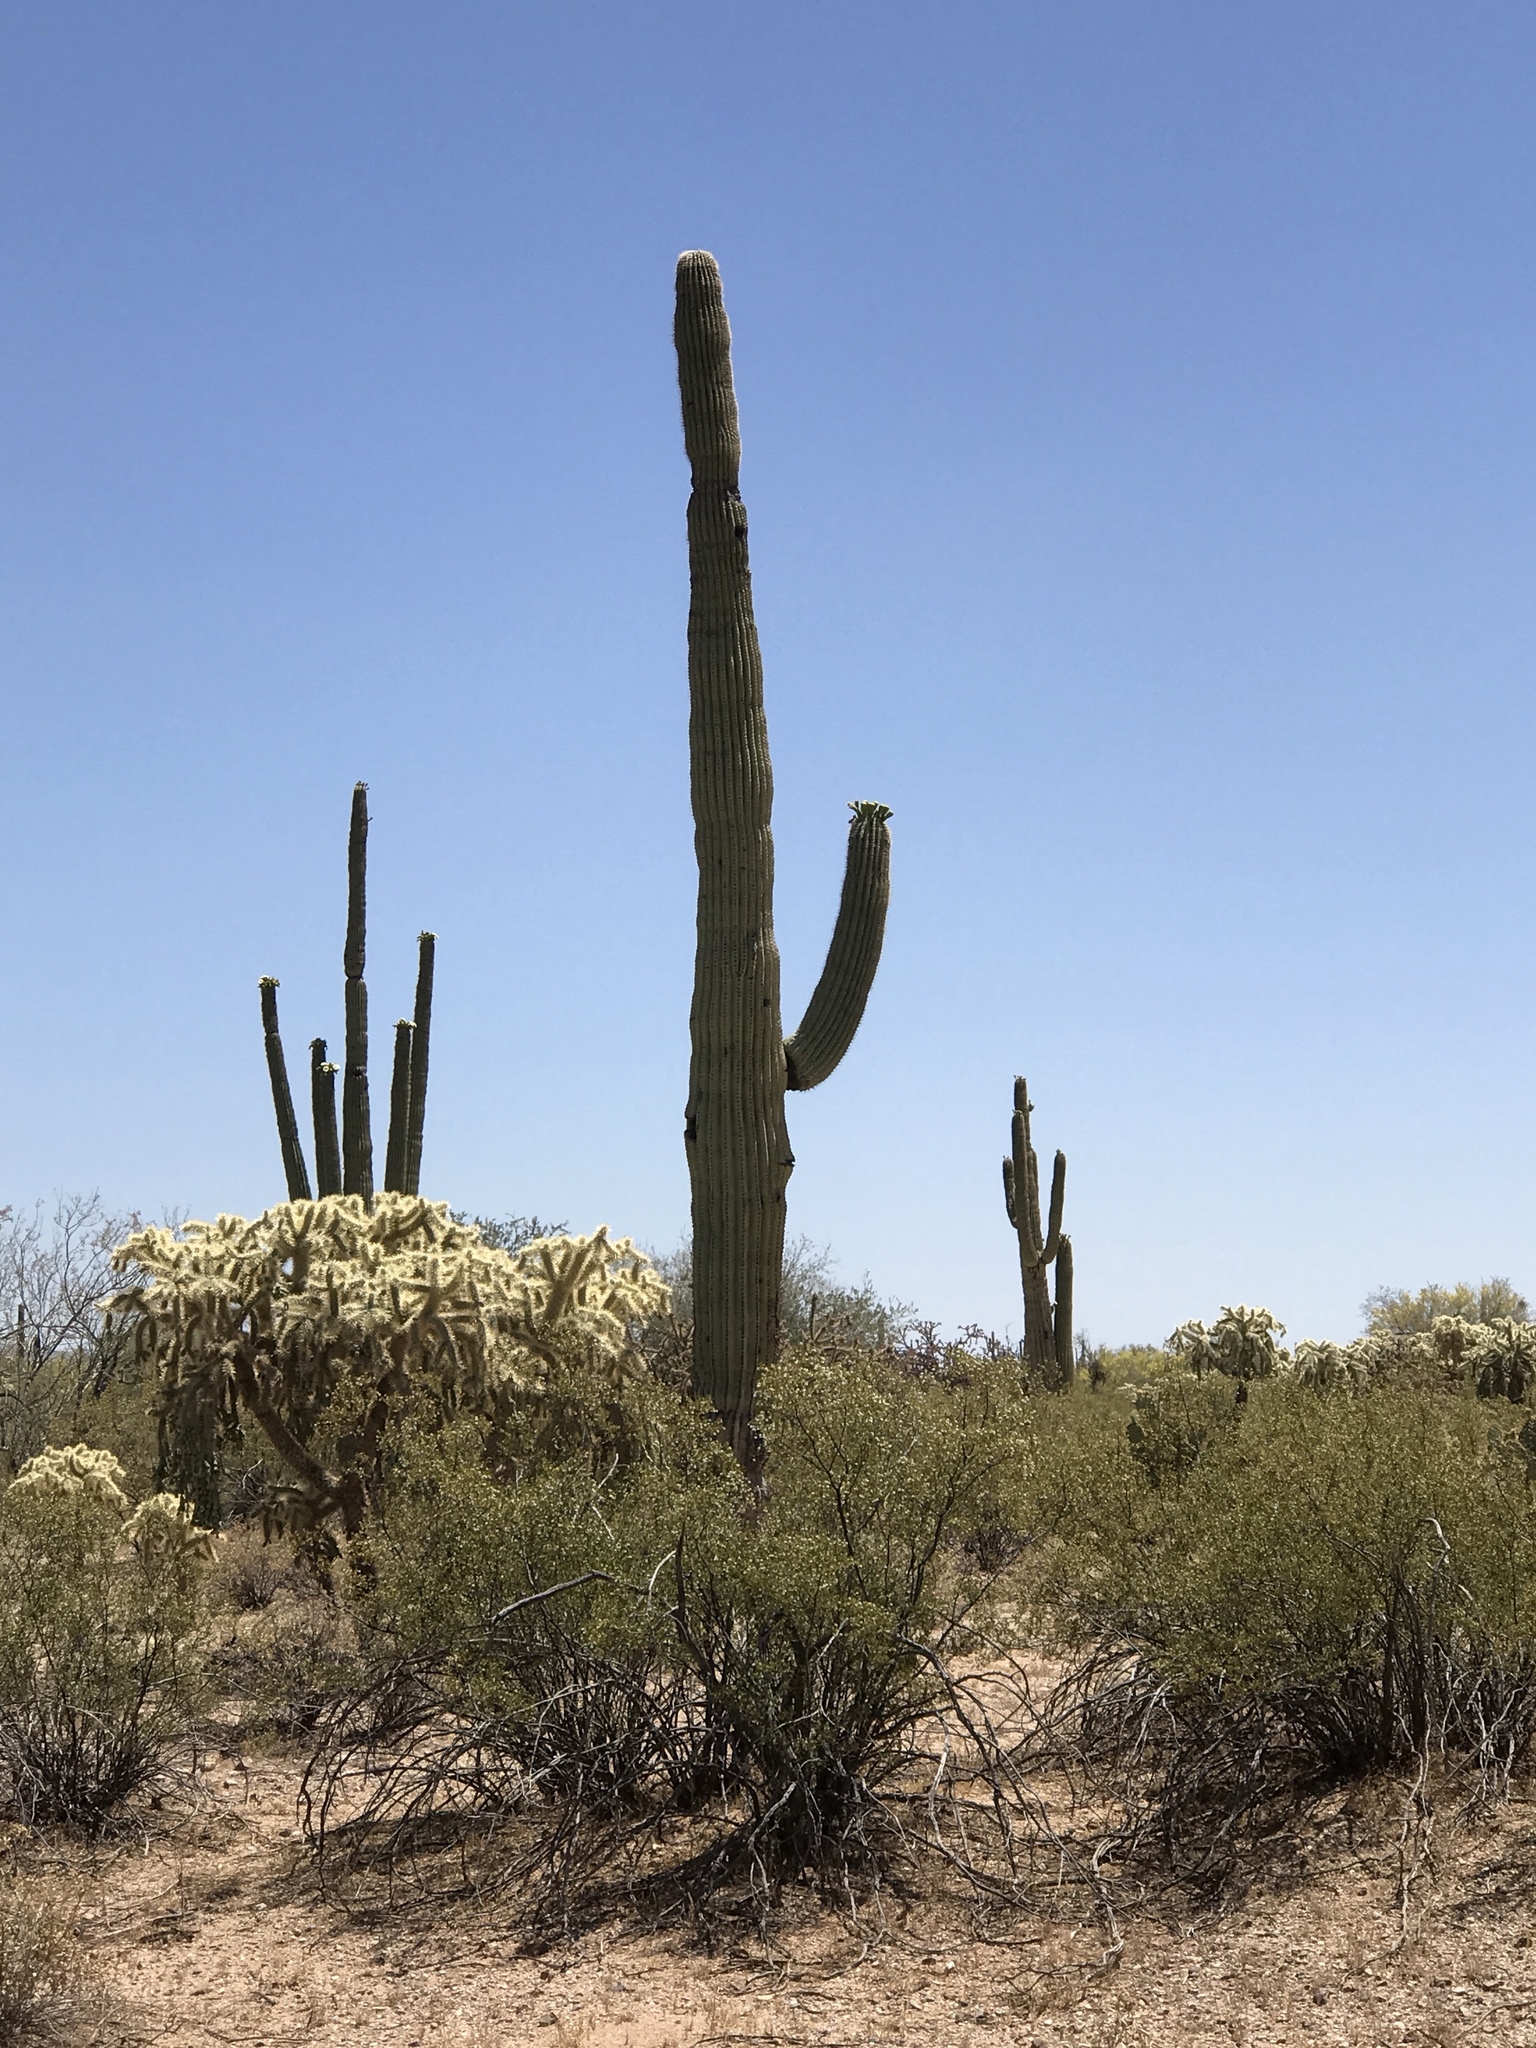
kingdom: Plantae
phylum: Tracheophyta
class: Magnoliopsida
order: Caryophyllales
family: Cactaceae
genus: Carnegiea
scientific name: Carnegiea gigantea
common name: Saguaro
